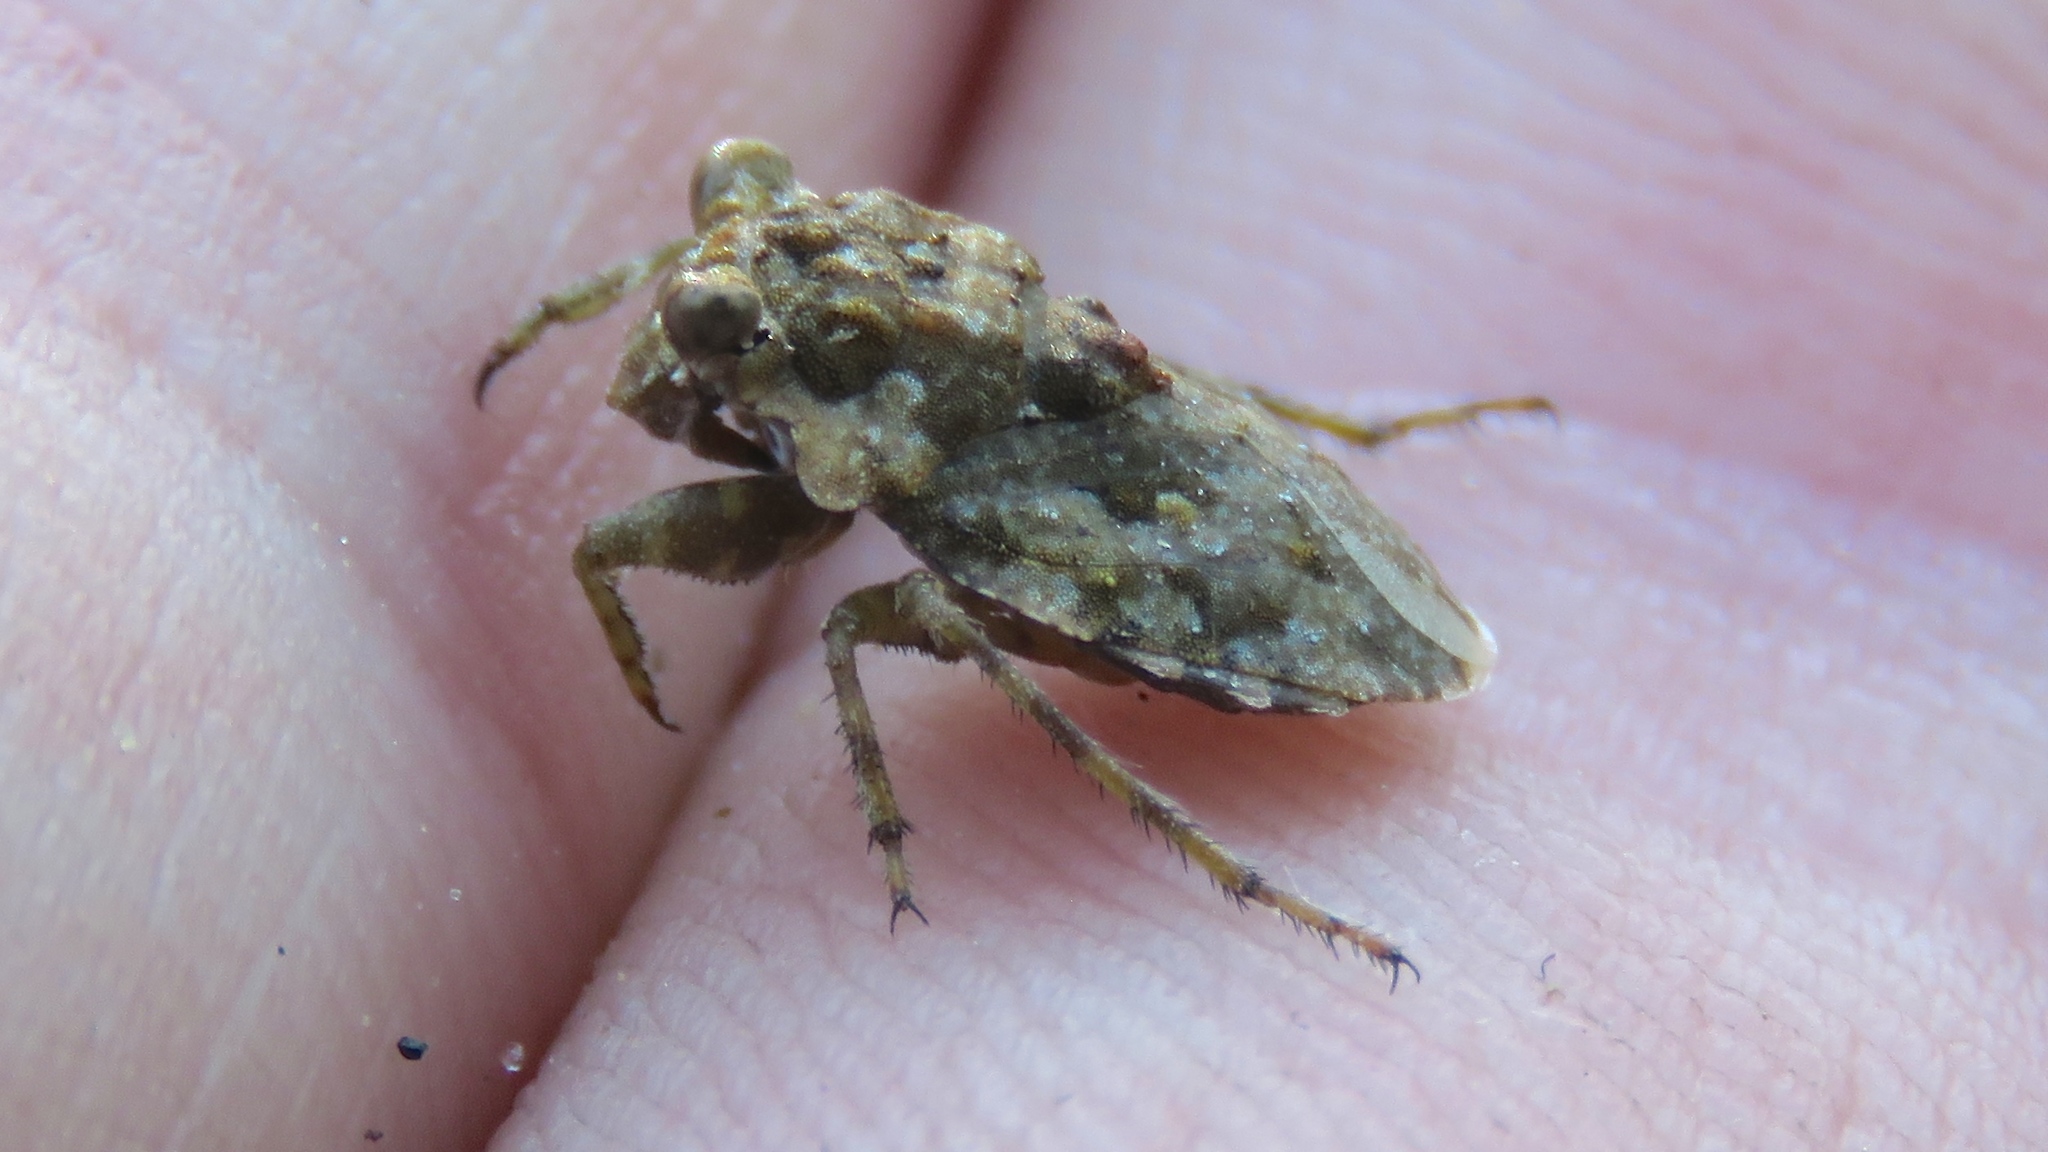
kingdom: Animalia
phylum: Arthropoda
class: Insecta
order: Hemiptera
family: Gelastocoridae
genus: Gelastocoris
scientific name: Gelastocoris oculatus
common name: Toad bug
